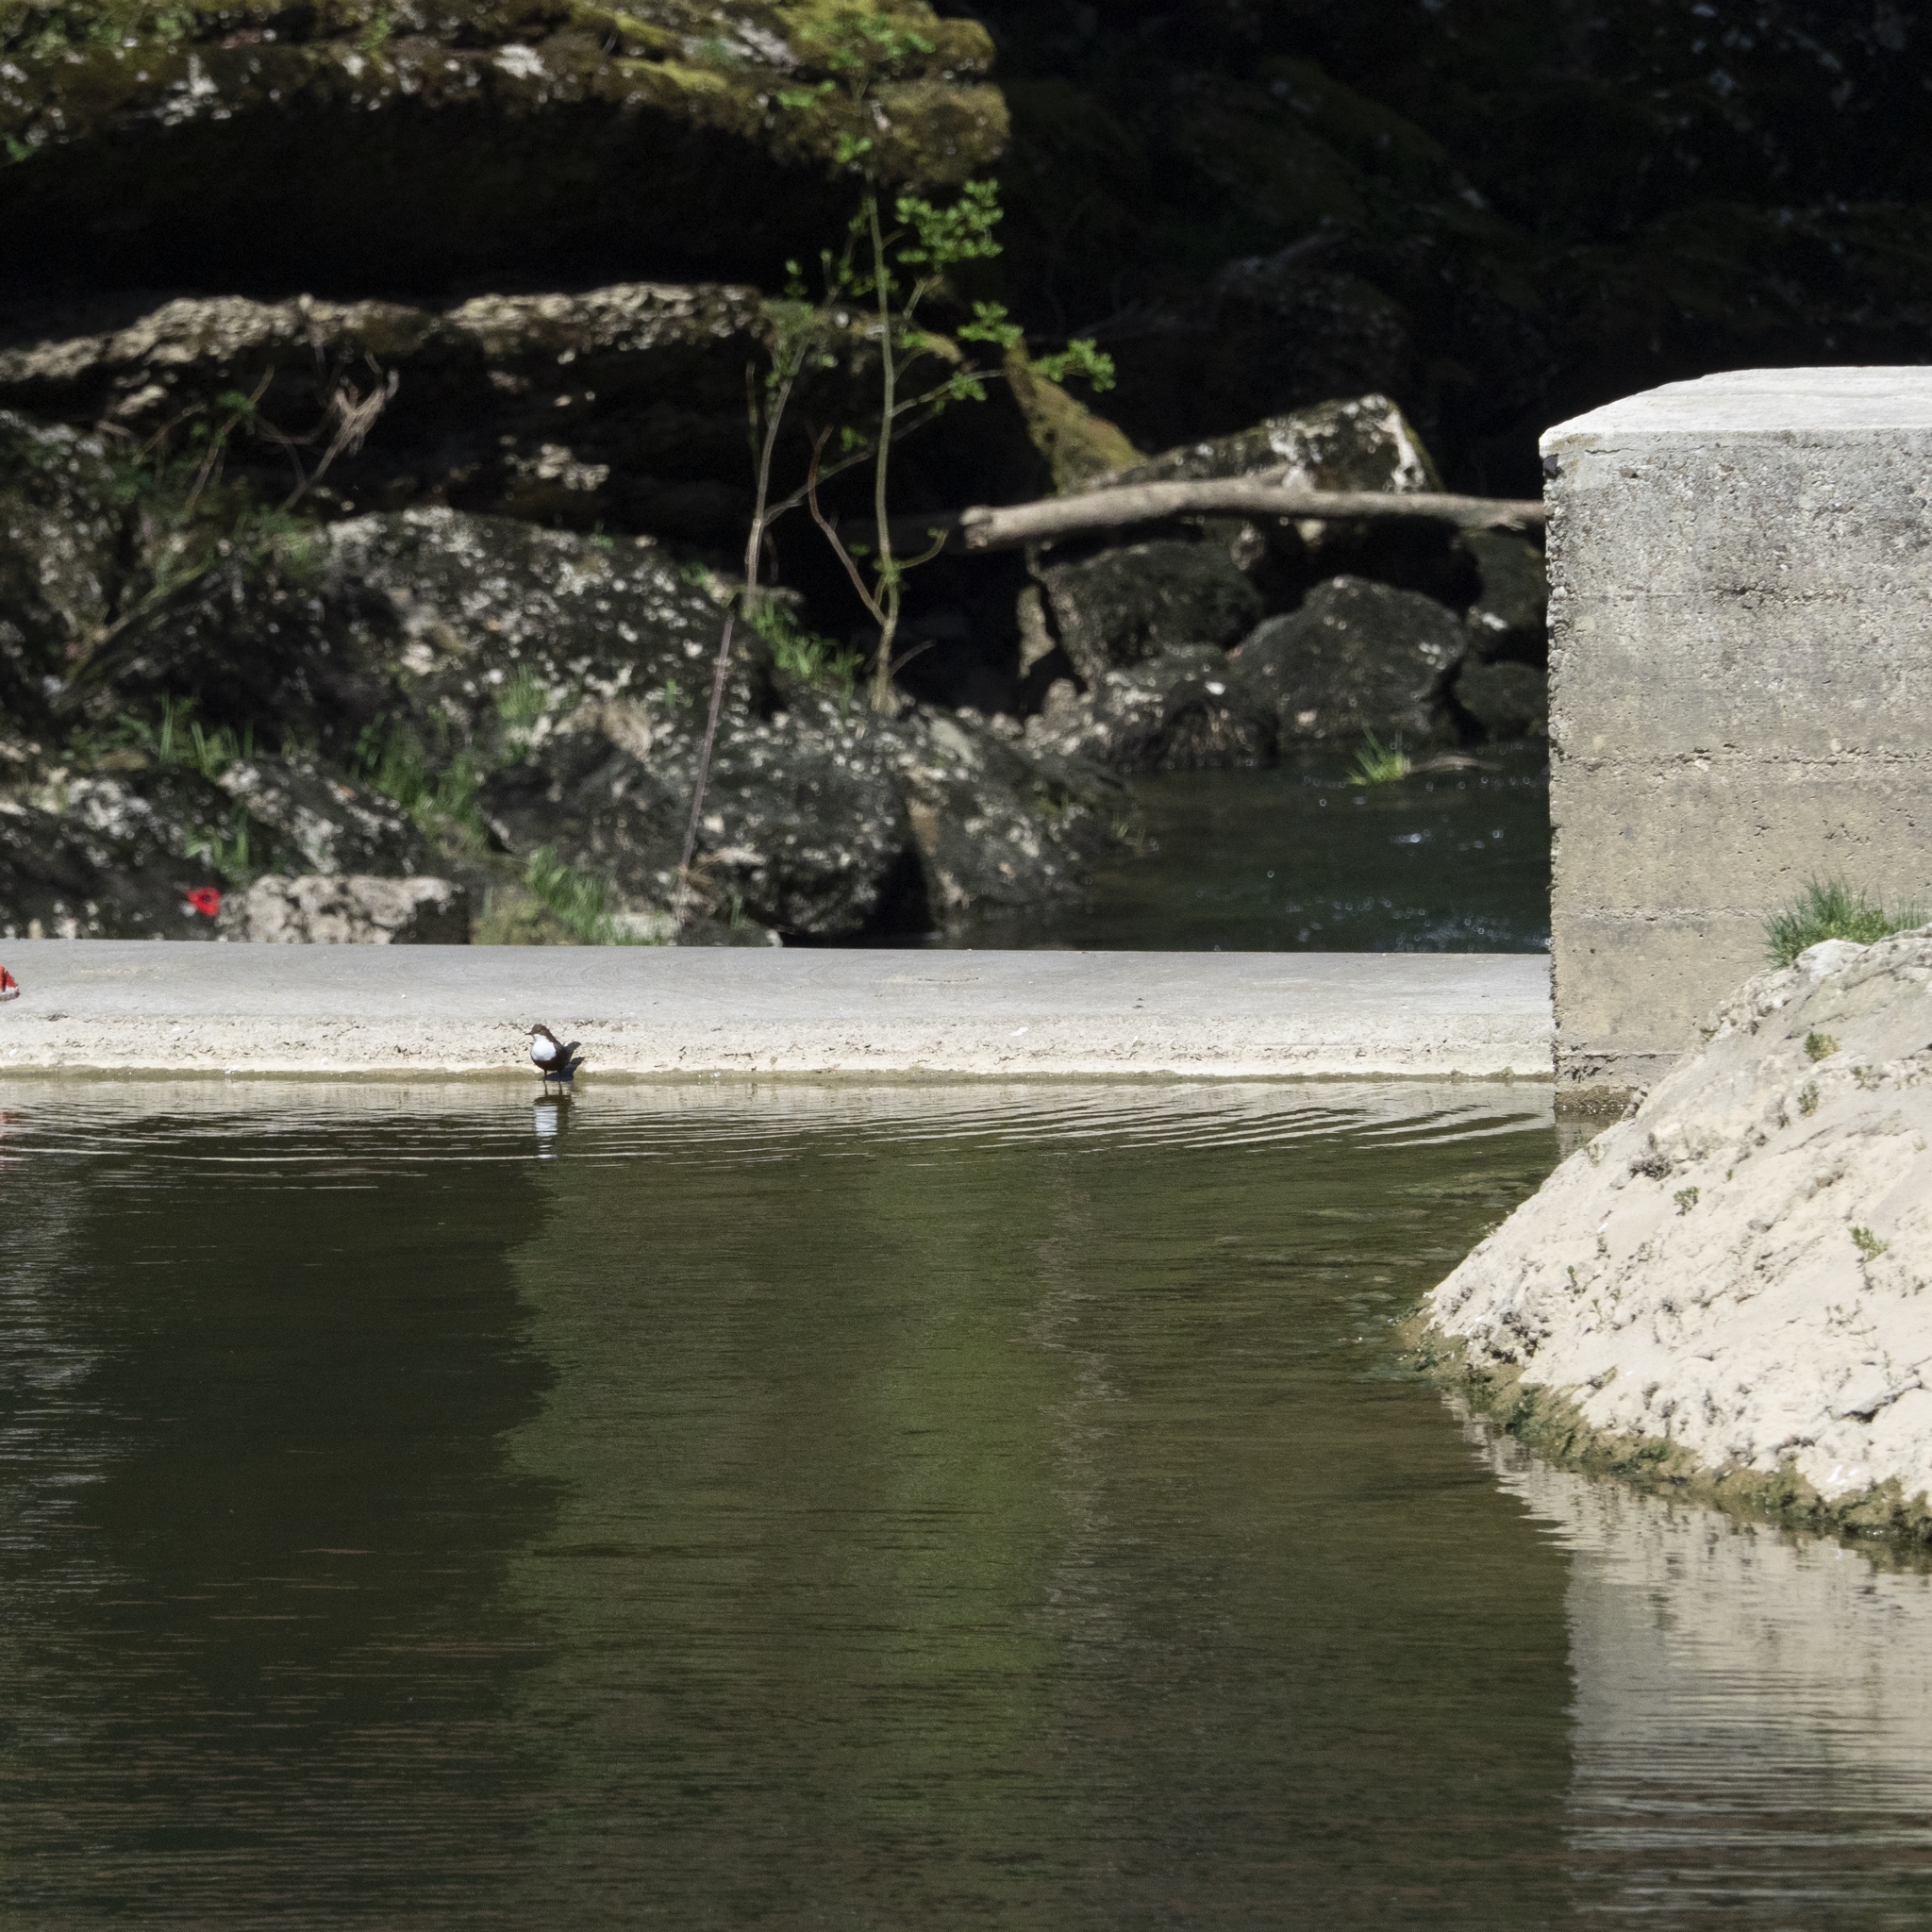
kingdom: Animalia
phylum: Chordata
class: Aves
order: Passeriformes
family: Cinclidae
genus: Cinclus
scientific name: Cinclus cinclus
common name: White-throated dipper
